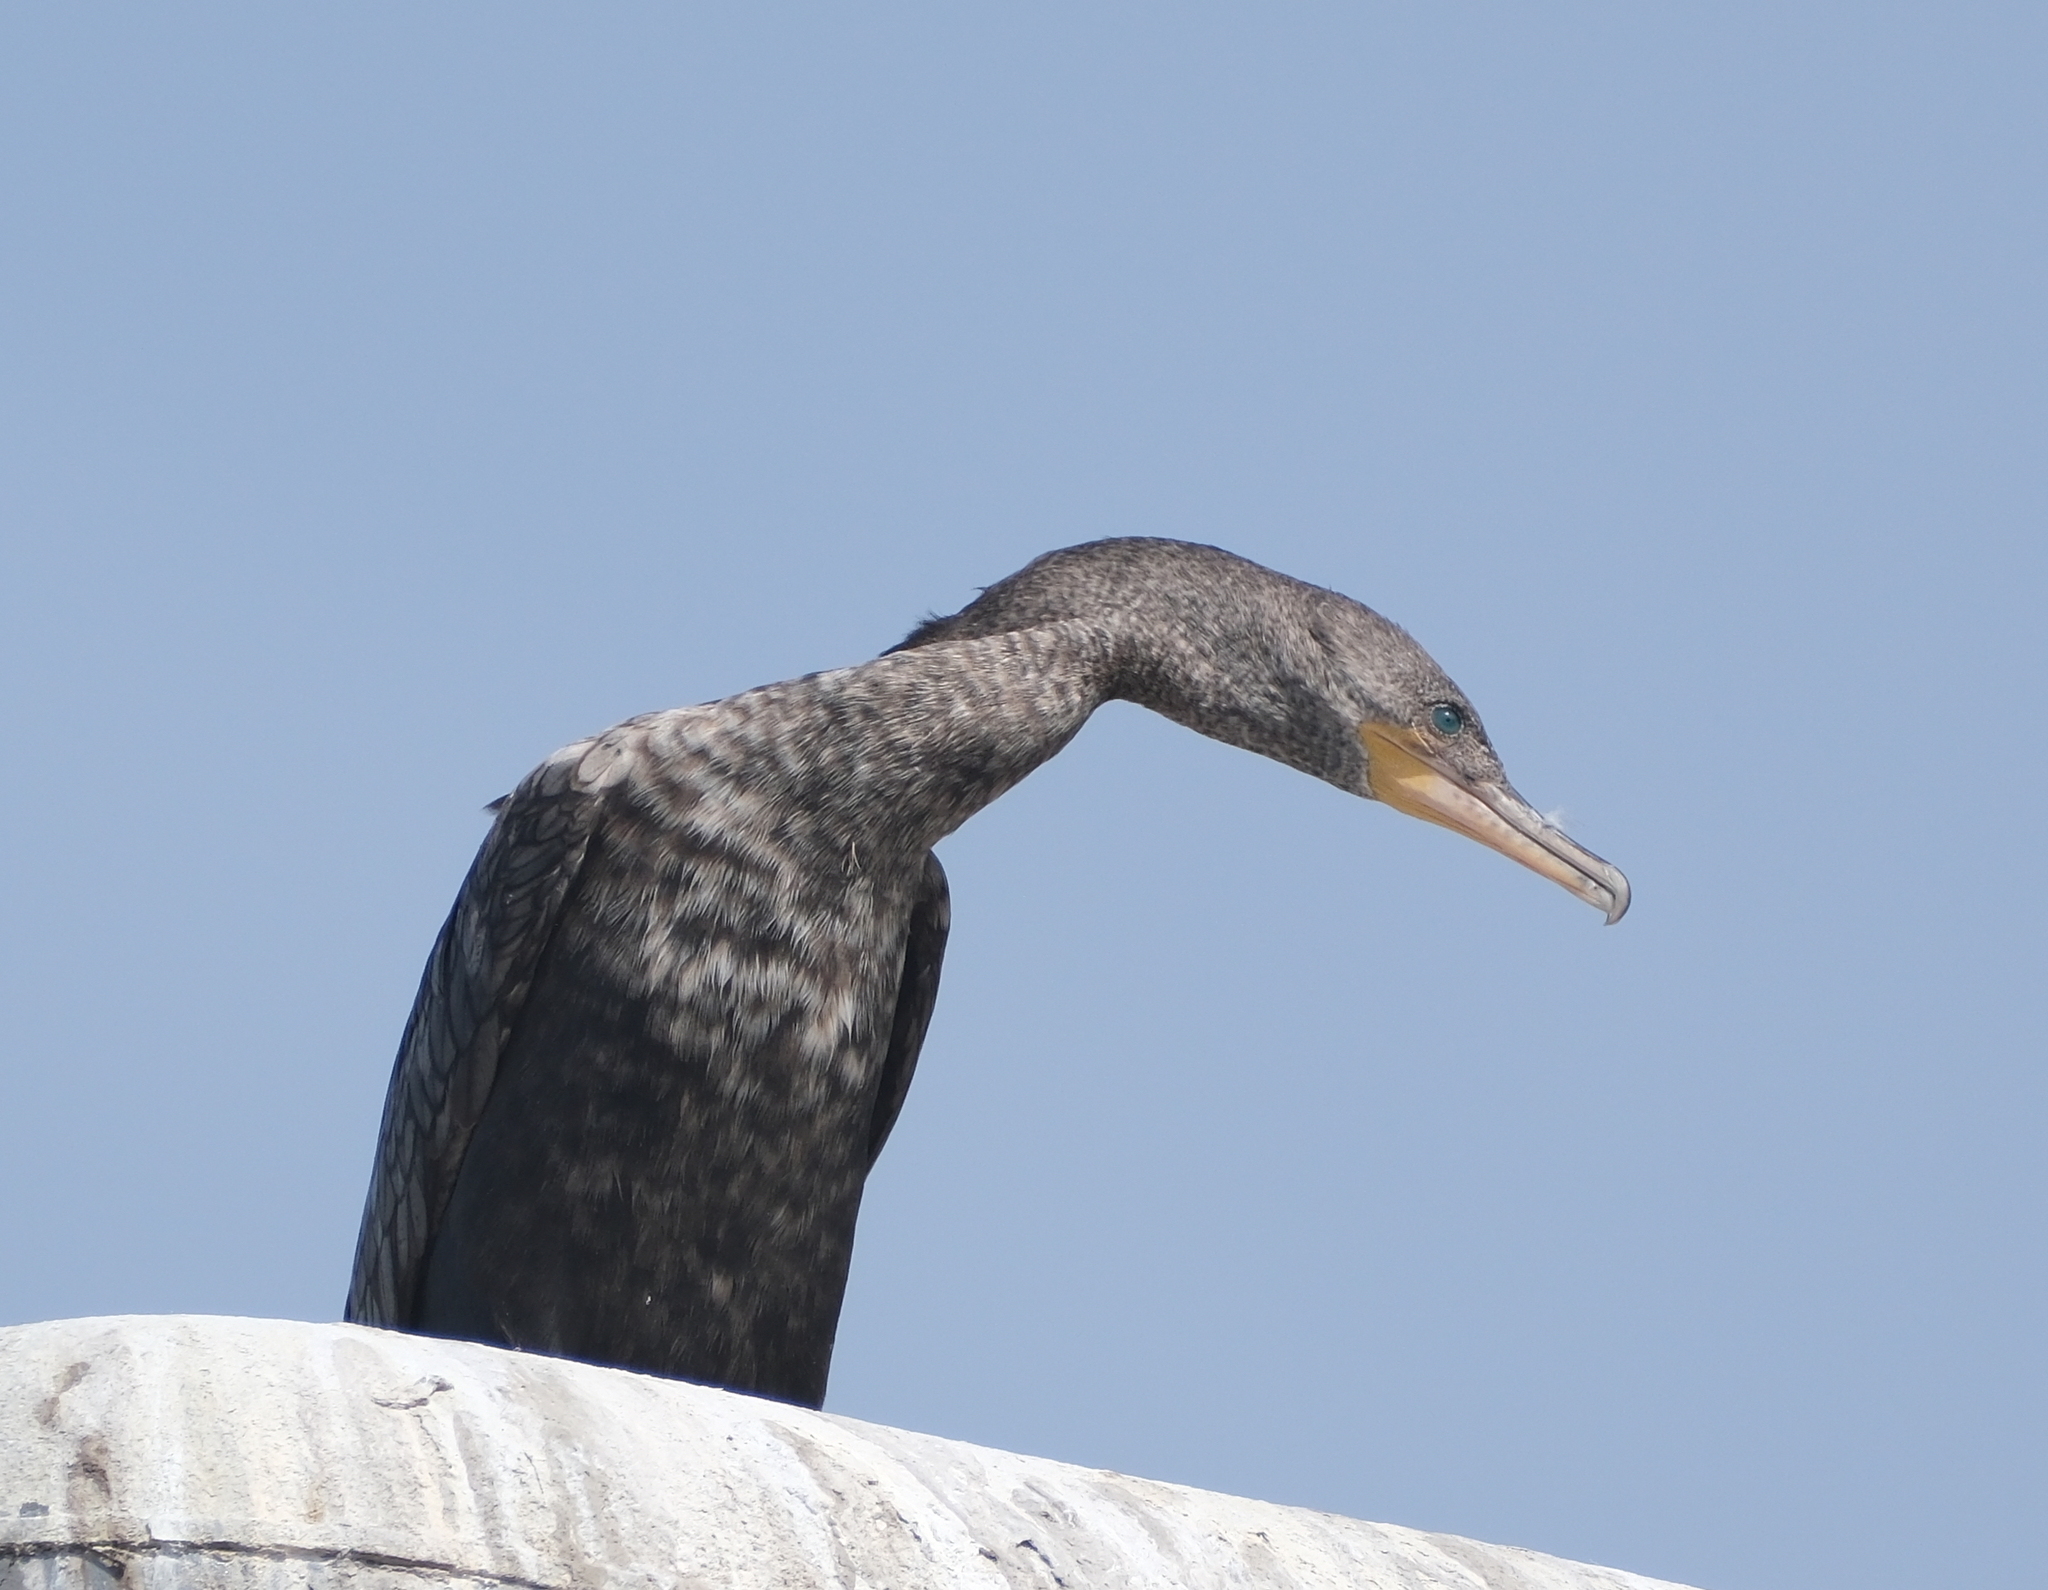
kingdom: Animalia
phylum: Chordata
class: Aves
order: Suliformes
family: Phalacrocoracidae
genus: Phalacrocorax
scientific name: Phalacrocorax brasilianus
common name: Neotropic cormorant
